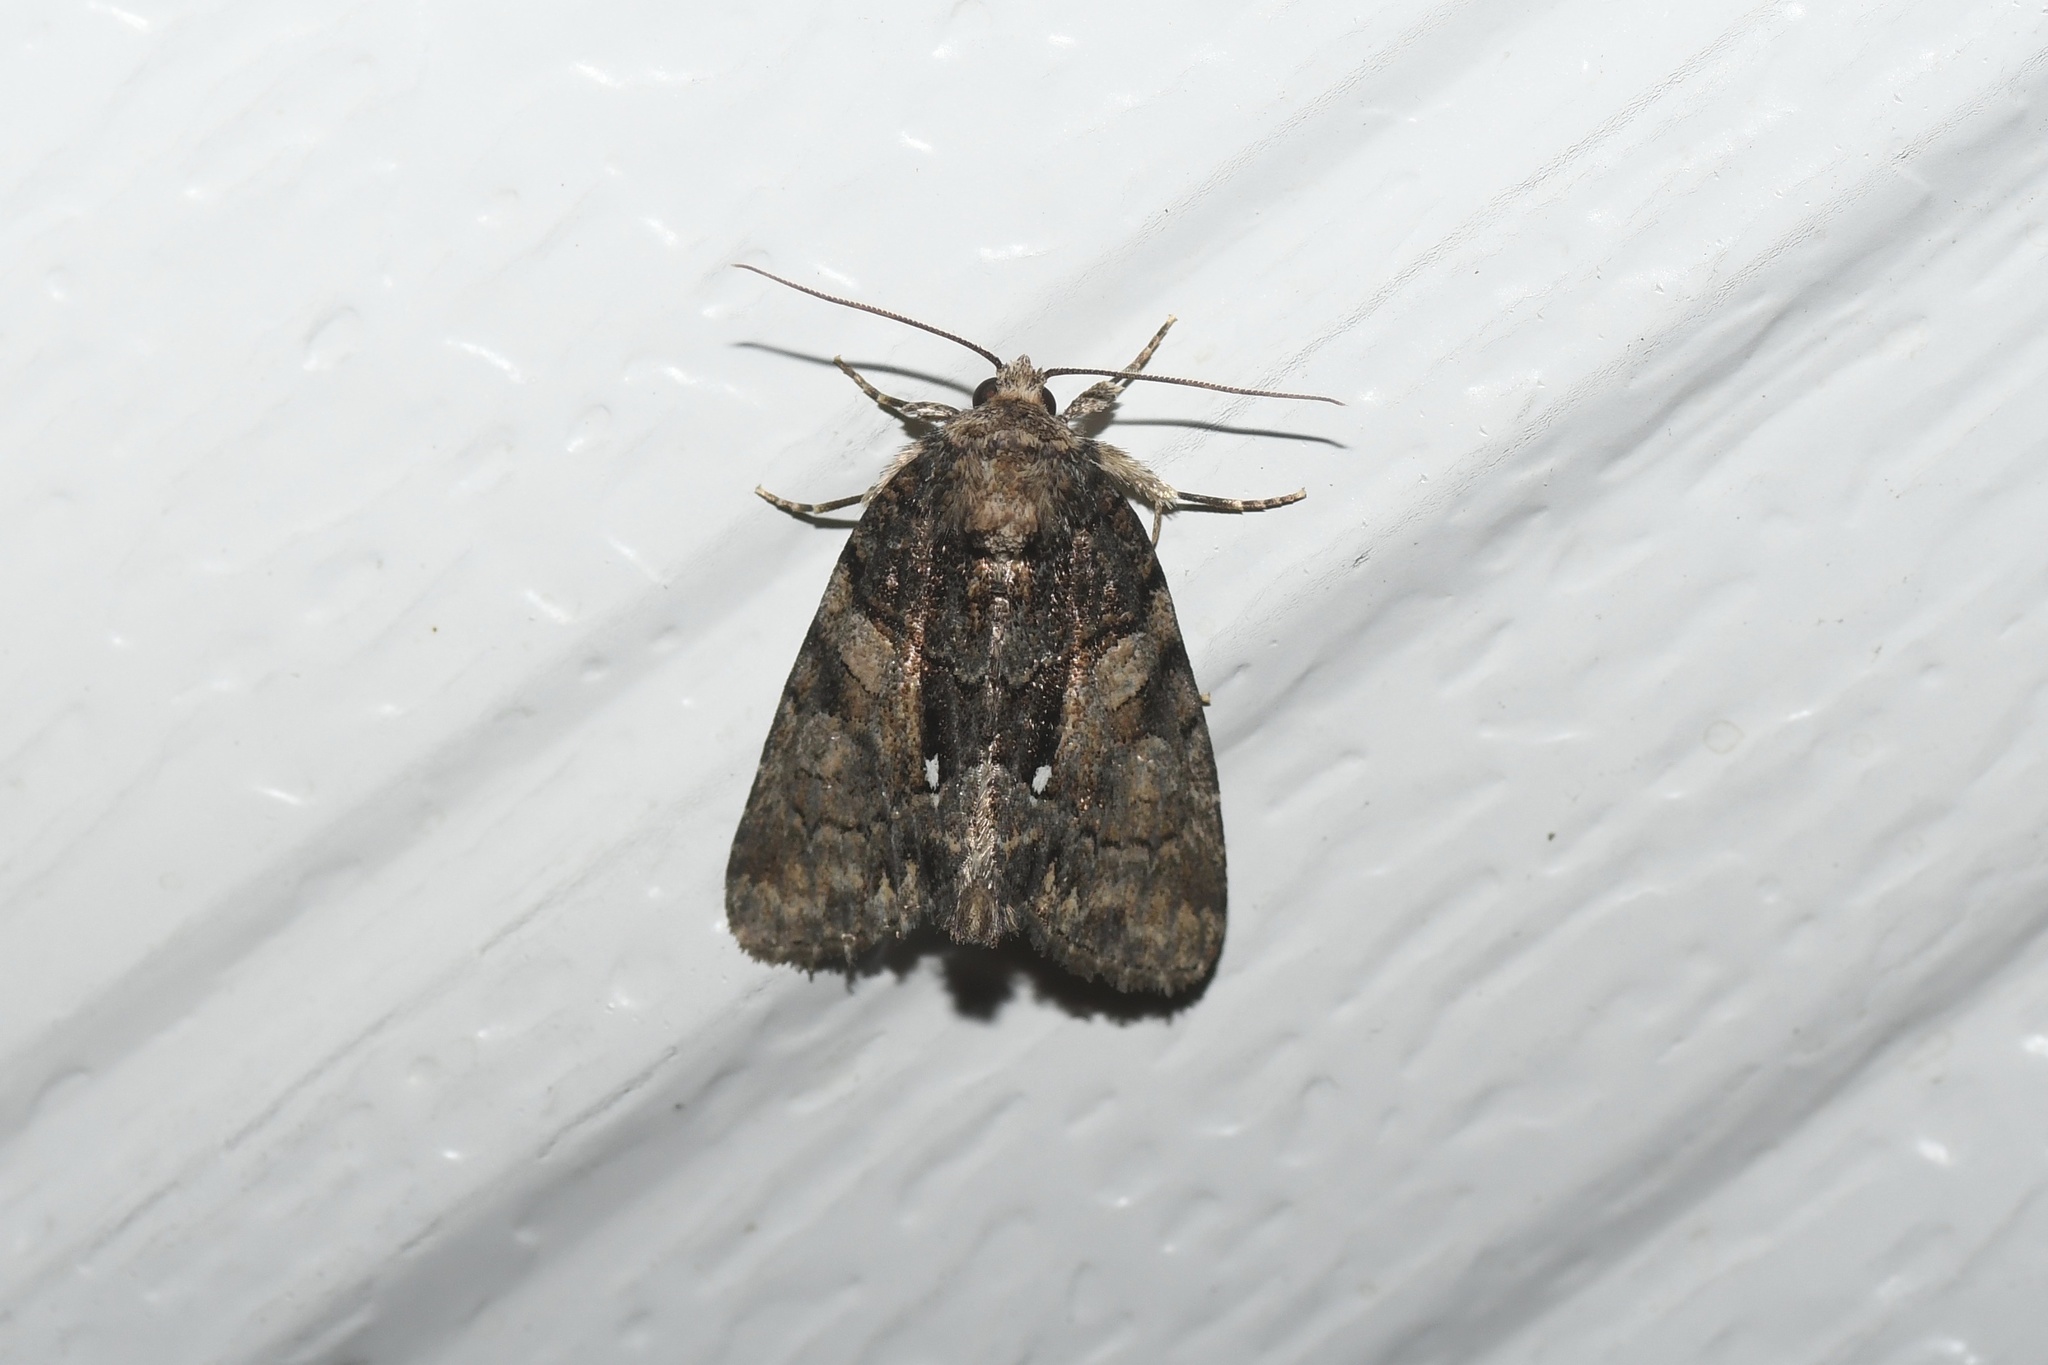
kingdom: Animalia
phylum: Arthropoda
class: Insecta
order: Lepidoptera
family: Noctuidae
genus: Chytonix
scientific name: Chytonix palliatricula
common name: Cloaked marvel
